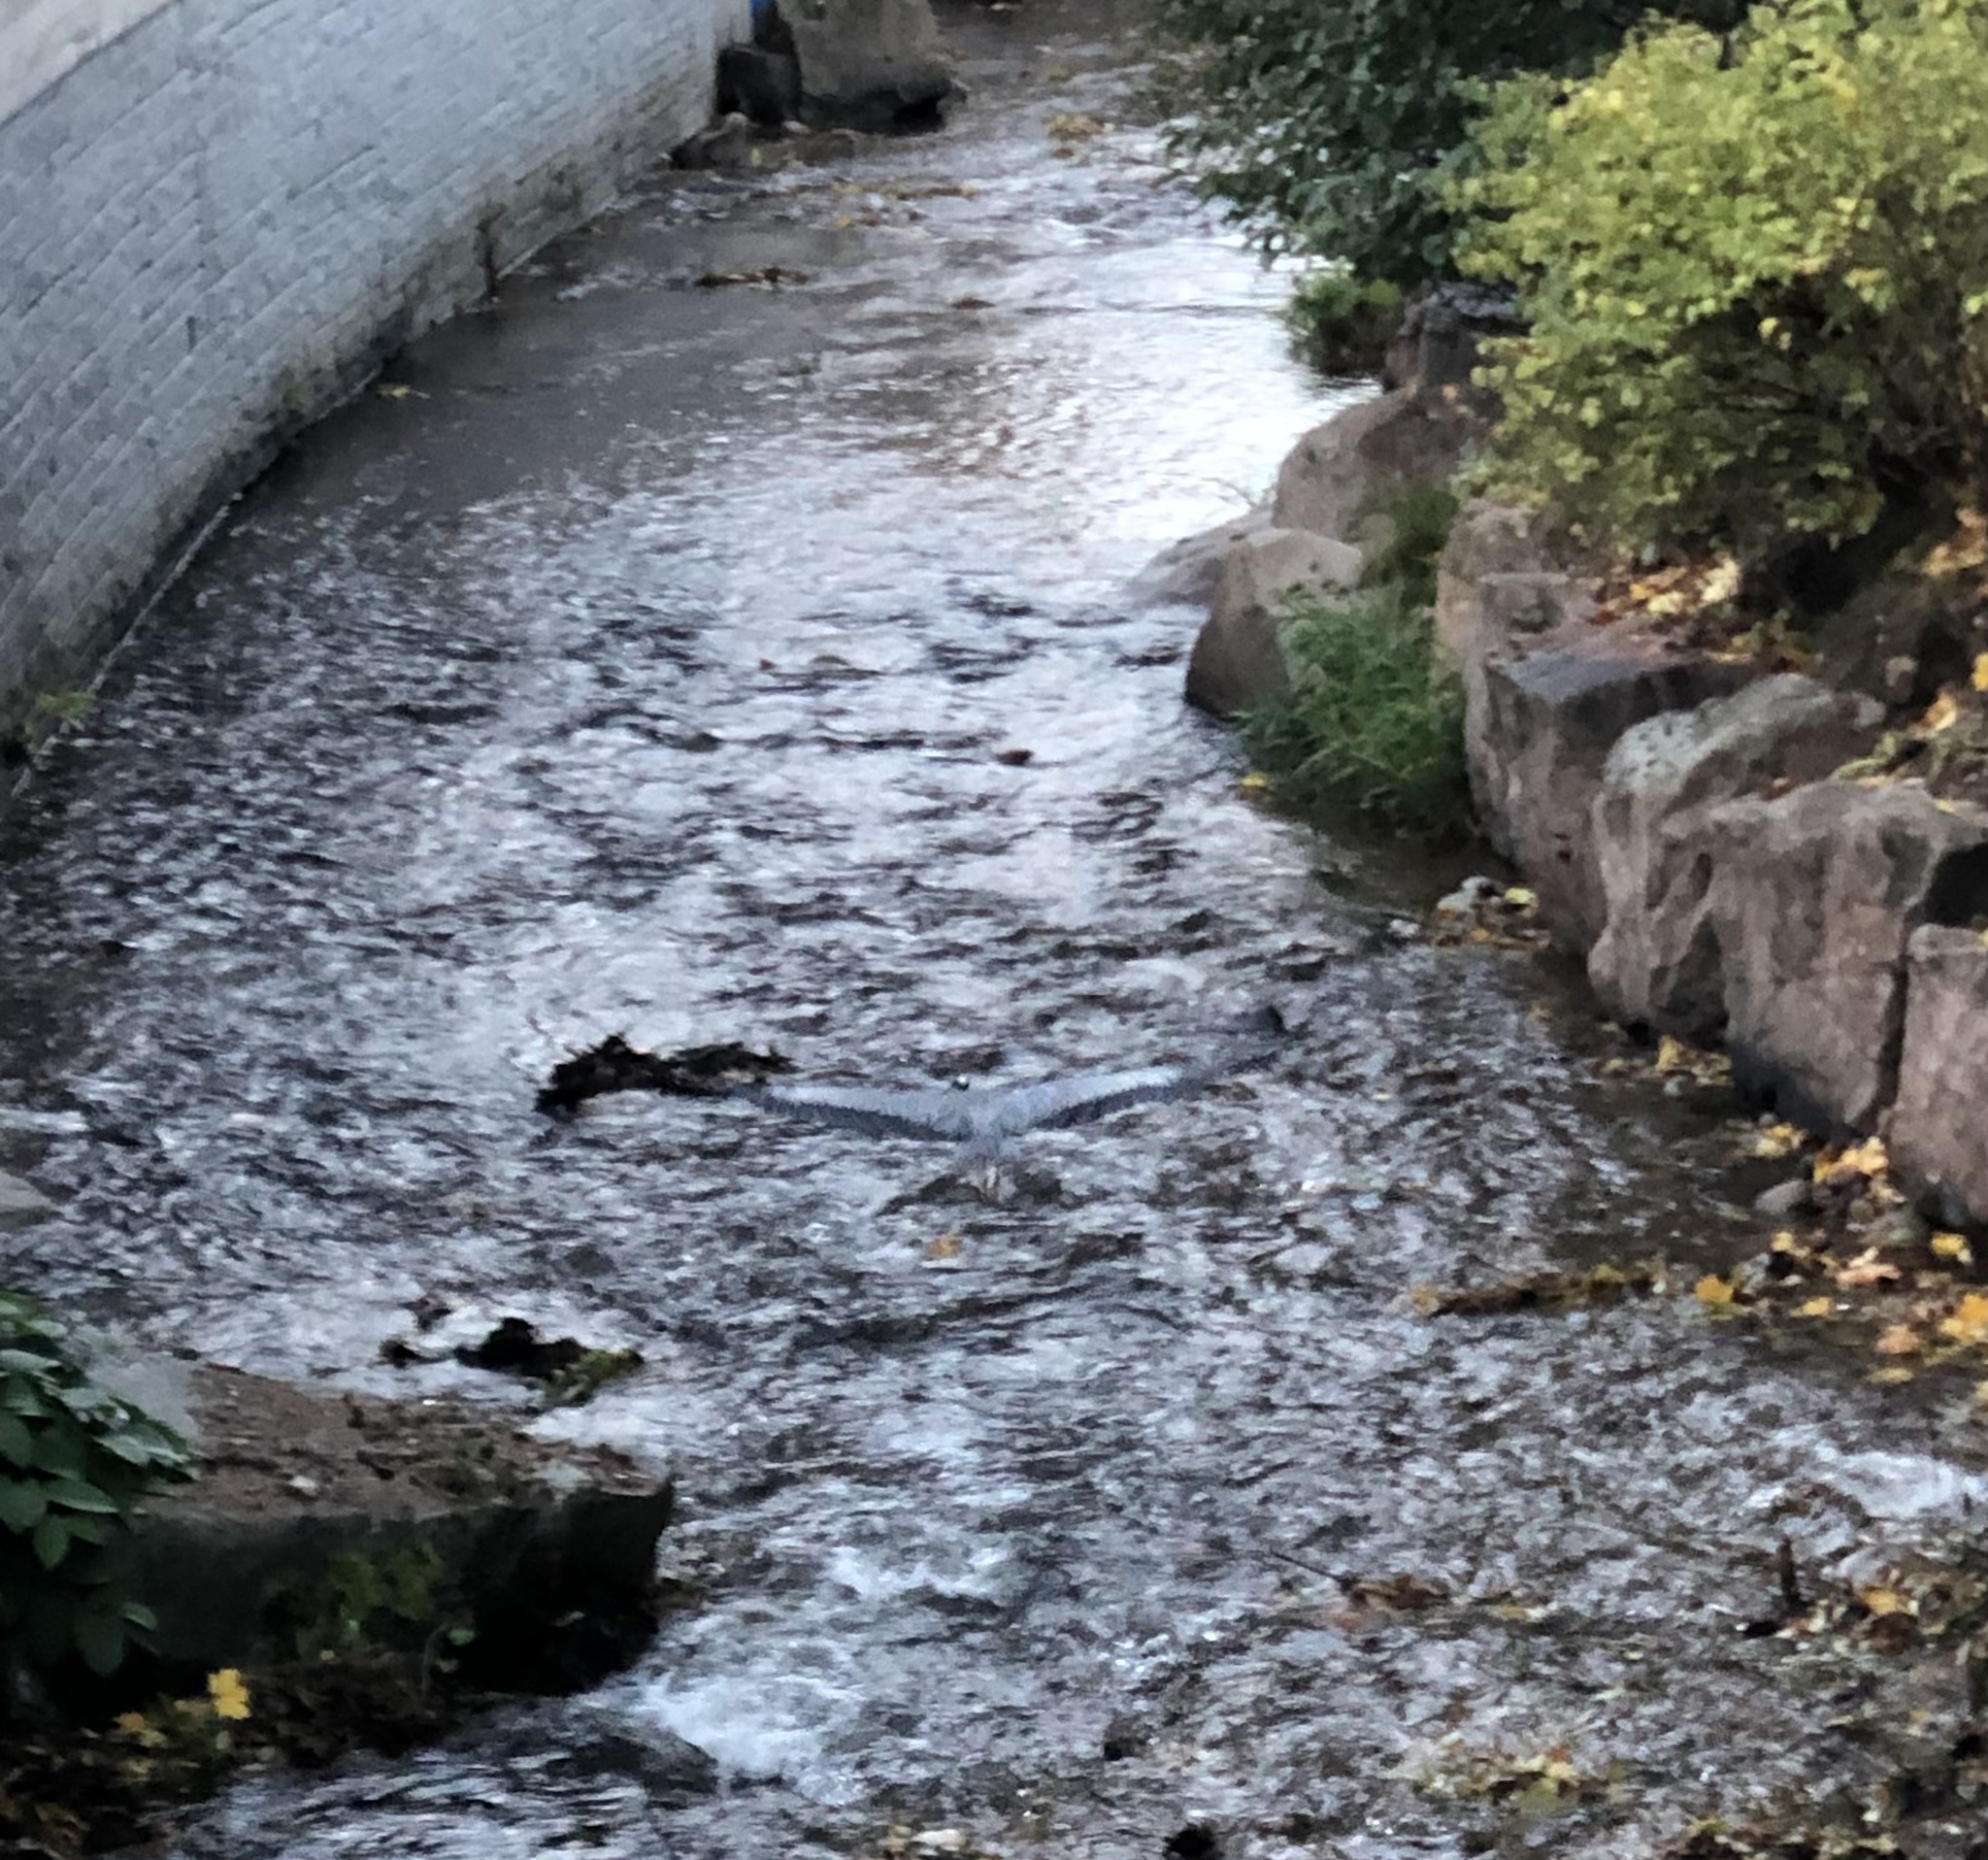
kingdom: Animalia
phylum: Chordata
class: Aves
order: Pelecaniformes
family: Ardeidae
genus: Ardea
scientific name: Ardea cinerea
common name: Grey heron
